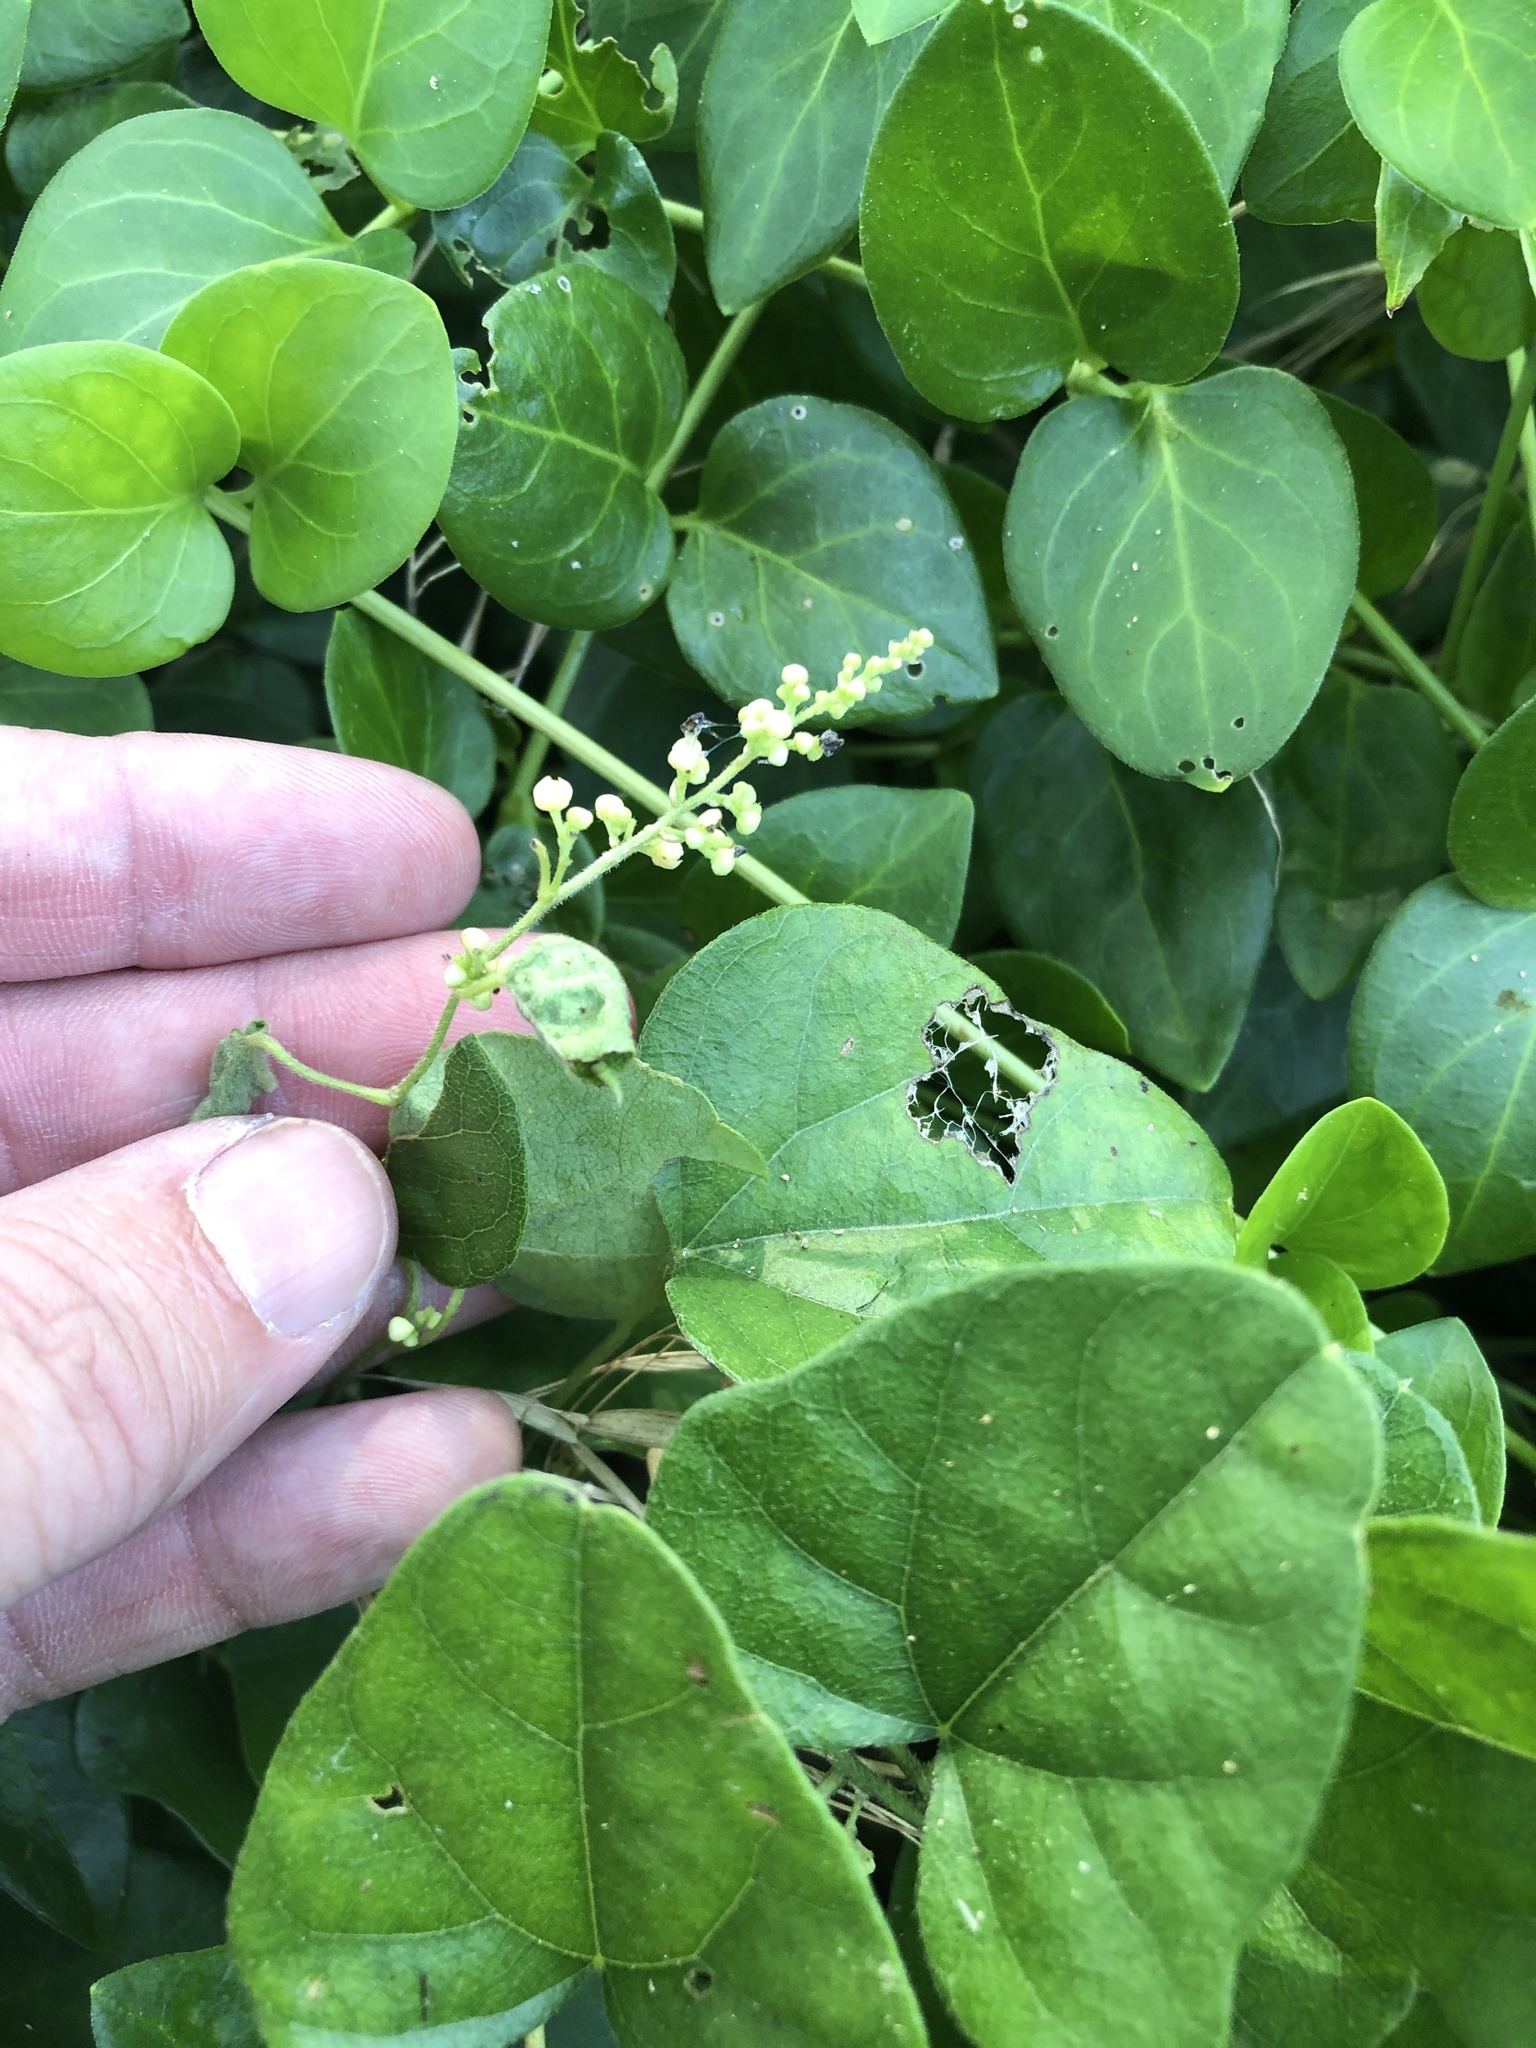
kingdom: Plantae
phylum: Tracheophyta
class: Magnoliopsida
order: Ranunculales
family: Menispermaceae
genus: Cocculus
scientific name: Cocculus carolinus
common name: Carolina moonseed
